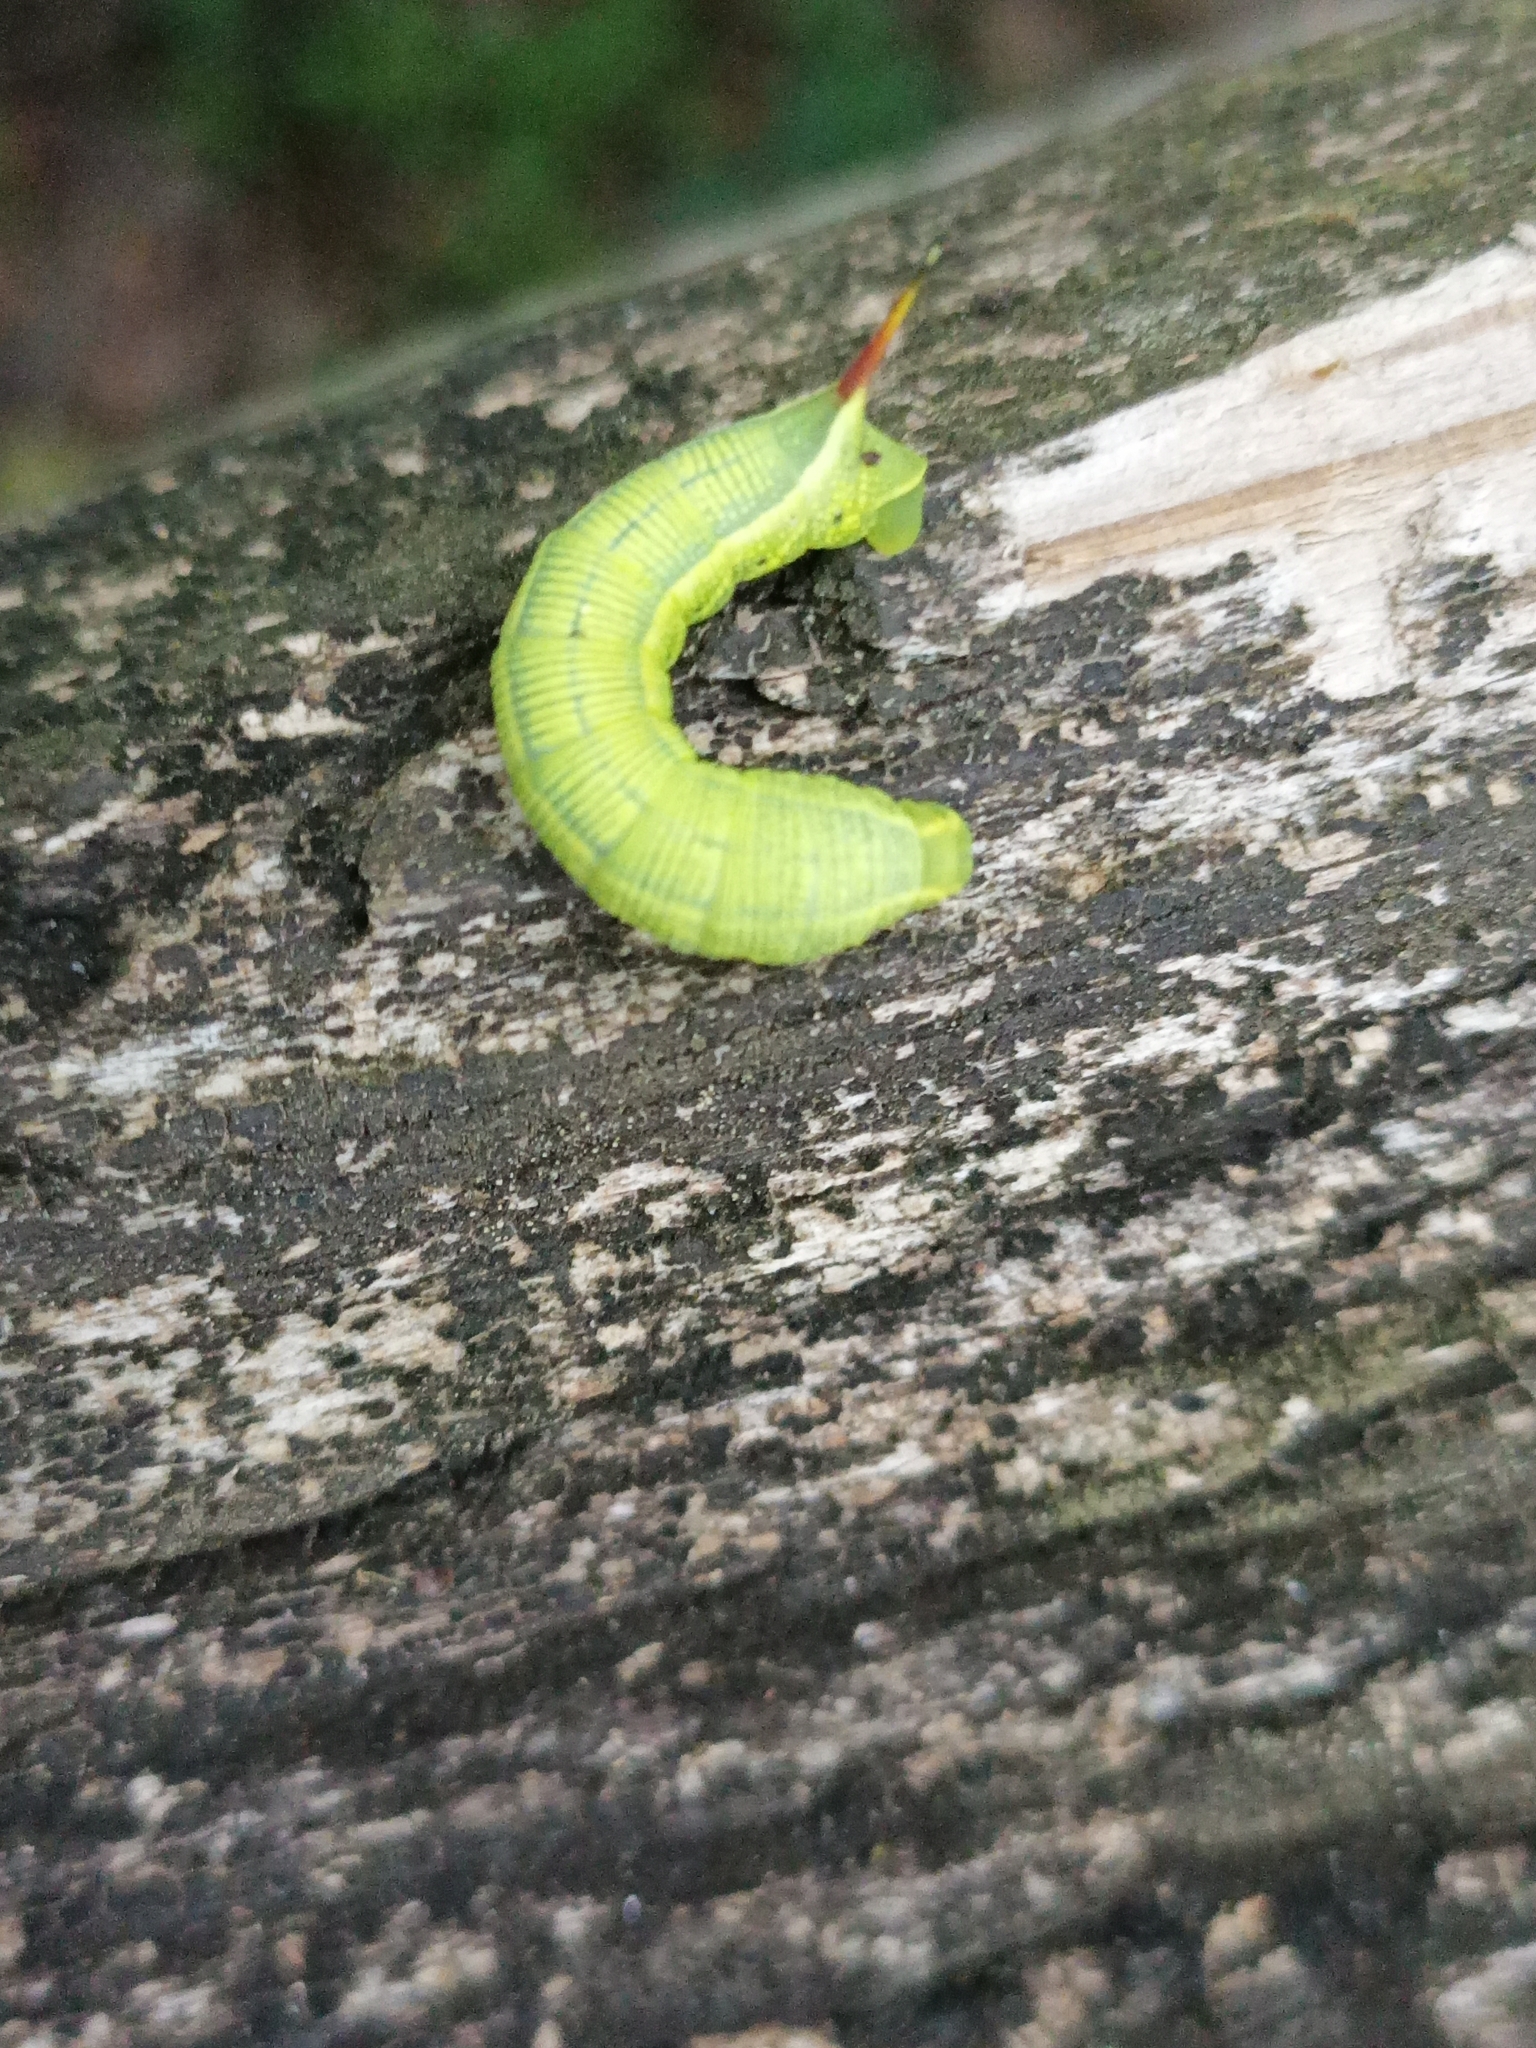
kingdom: Animalia
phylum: Arthropoda
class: Insecta
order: Lepidoptera
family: Sphingidae
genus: Deidamia
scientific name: Deidamia inscriptum
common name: Lettered sphinx
